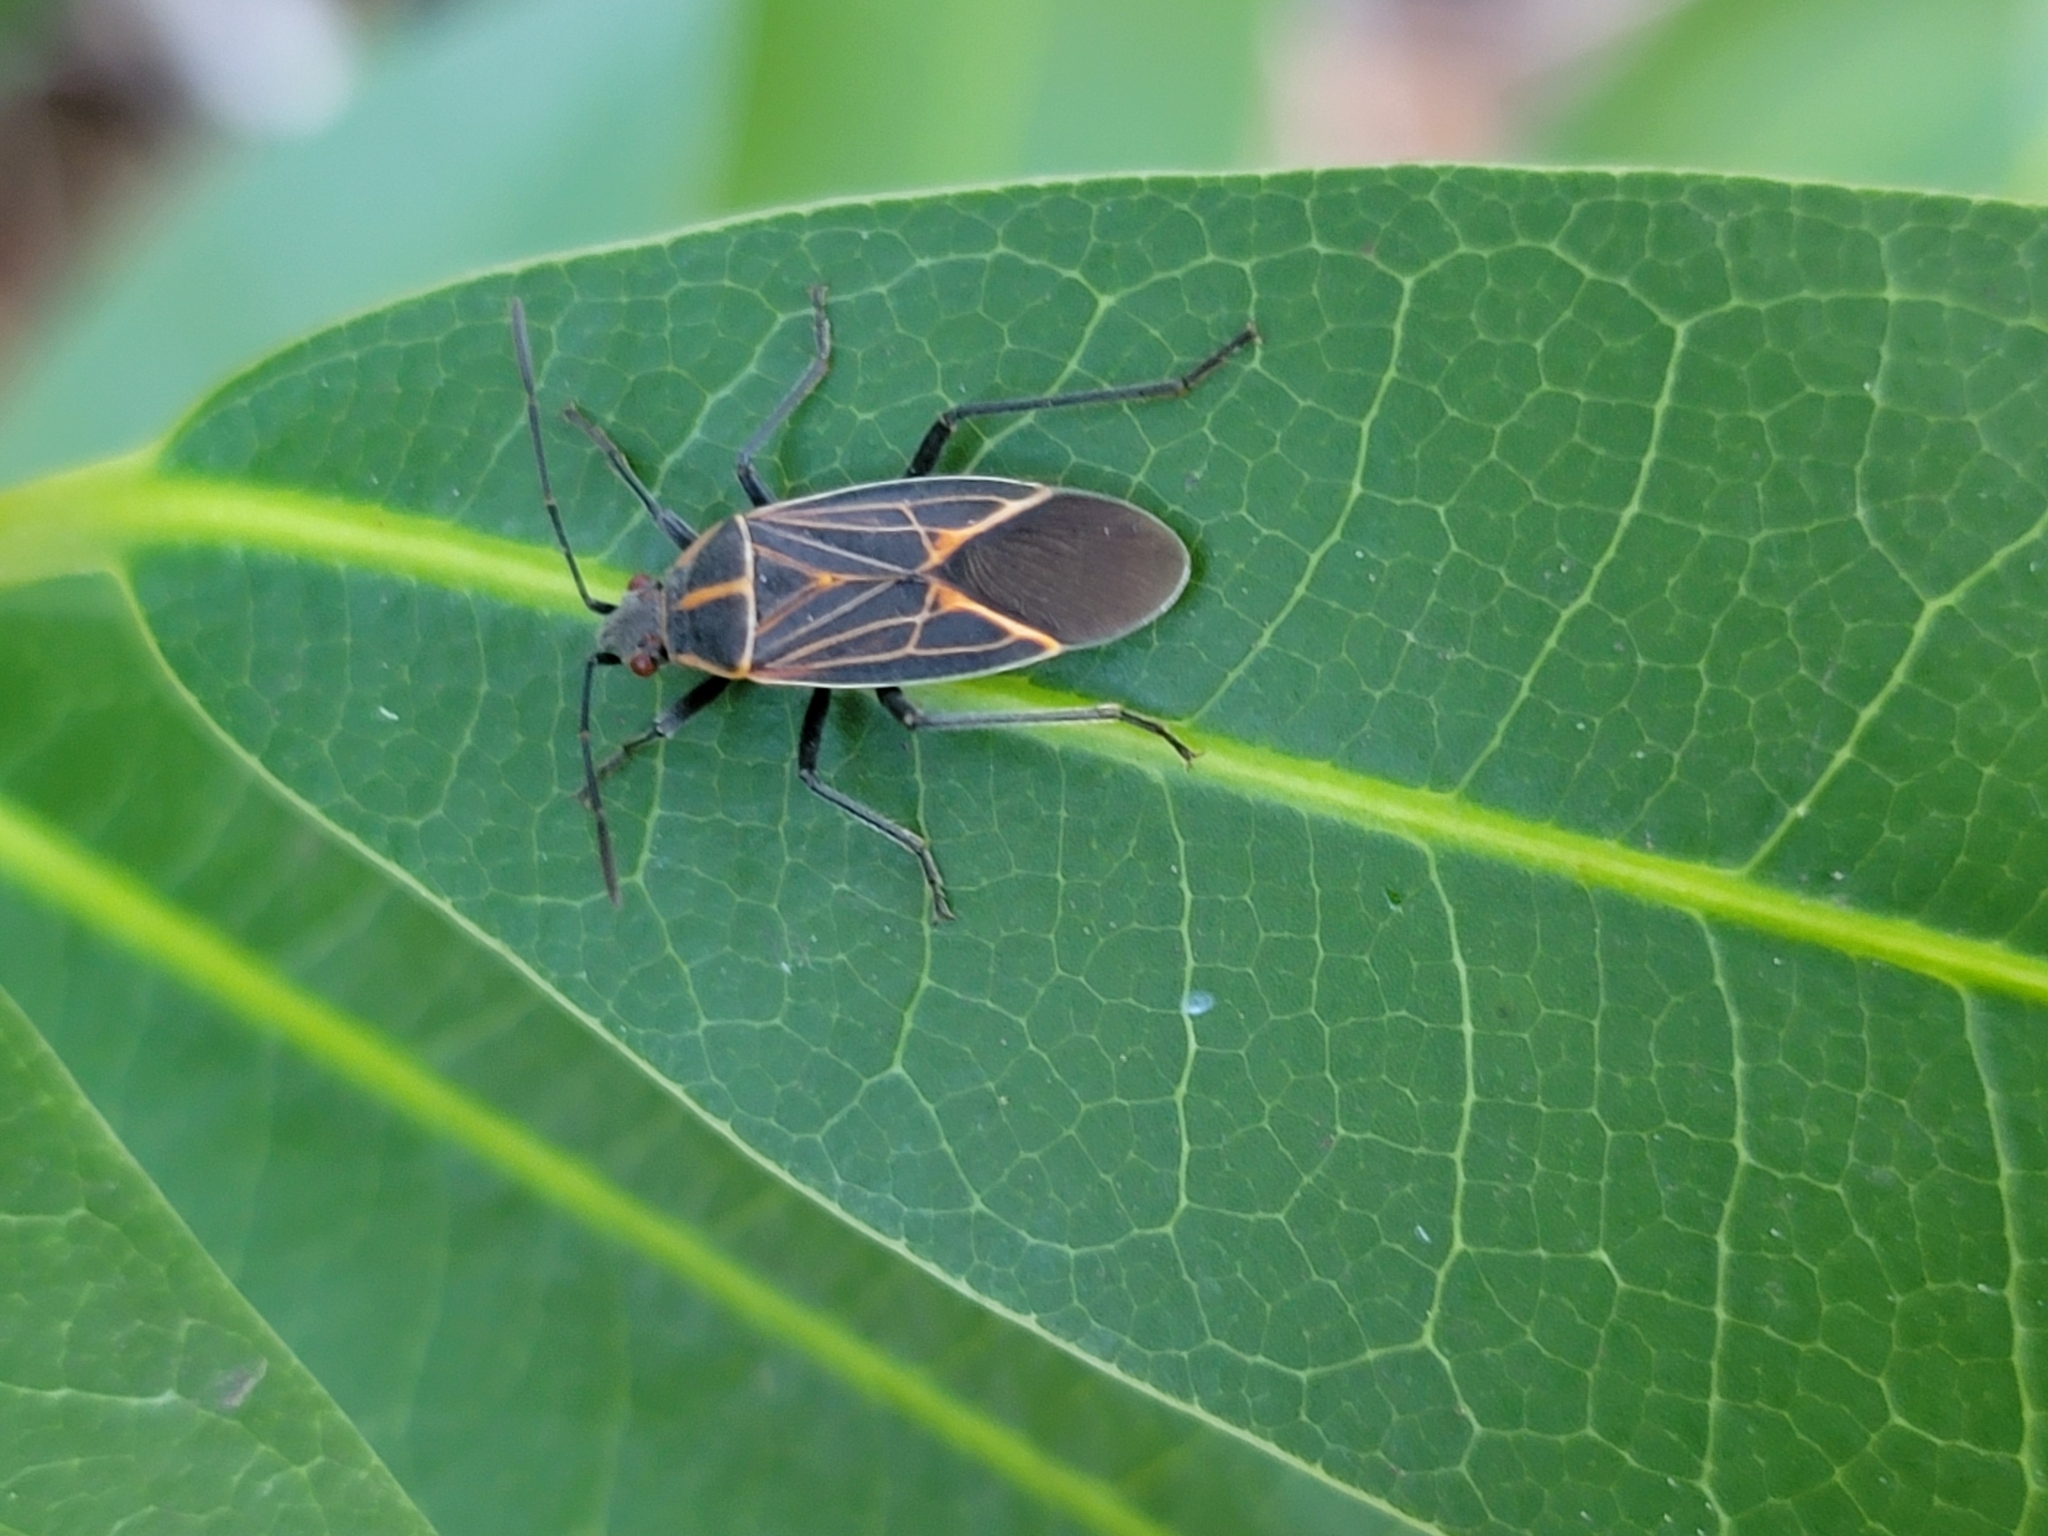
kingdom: Animalia
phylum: Arthropoda
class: Insecta
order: Hemiptera
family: Rhopalidae
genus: Boisea
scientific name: Boisea rubrolineata
